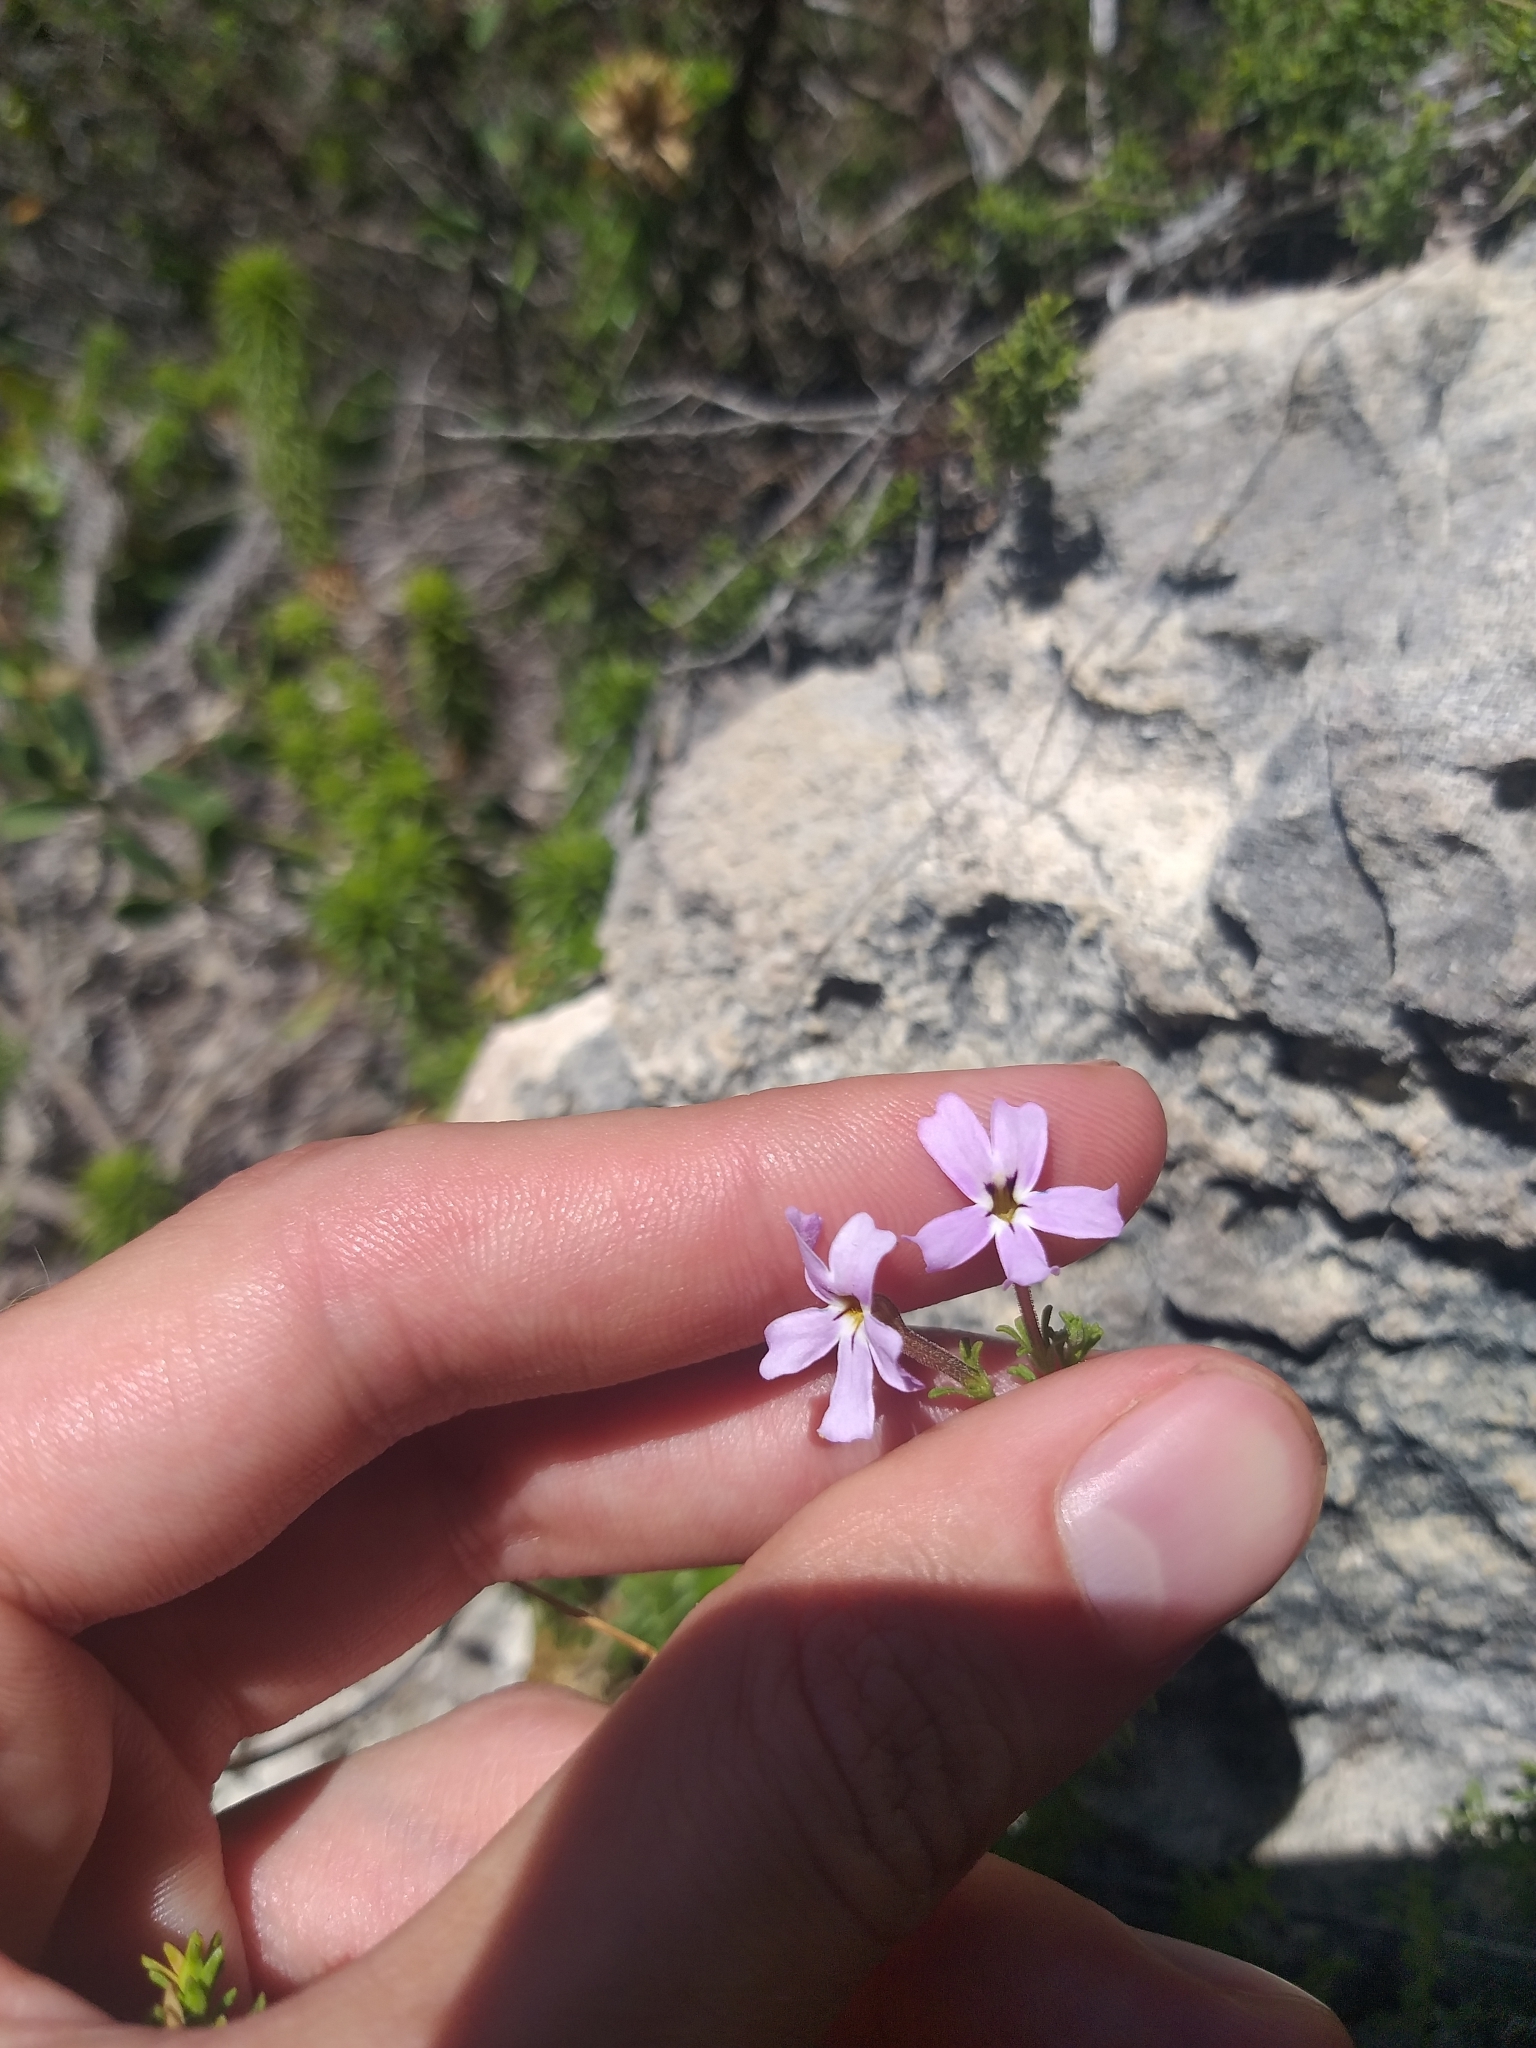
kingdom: Plantae
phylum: Tracheophyta
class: Magnoliopsida
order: Lamiales
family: Scrophulariaceae
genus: Jamesbrittenia
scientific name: Jamesbrittenia stellata
